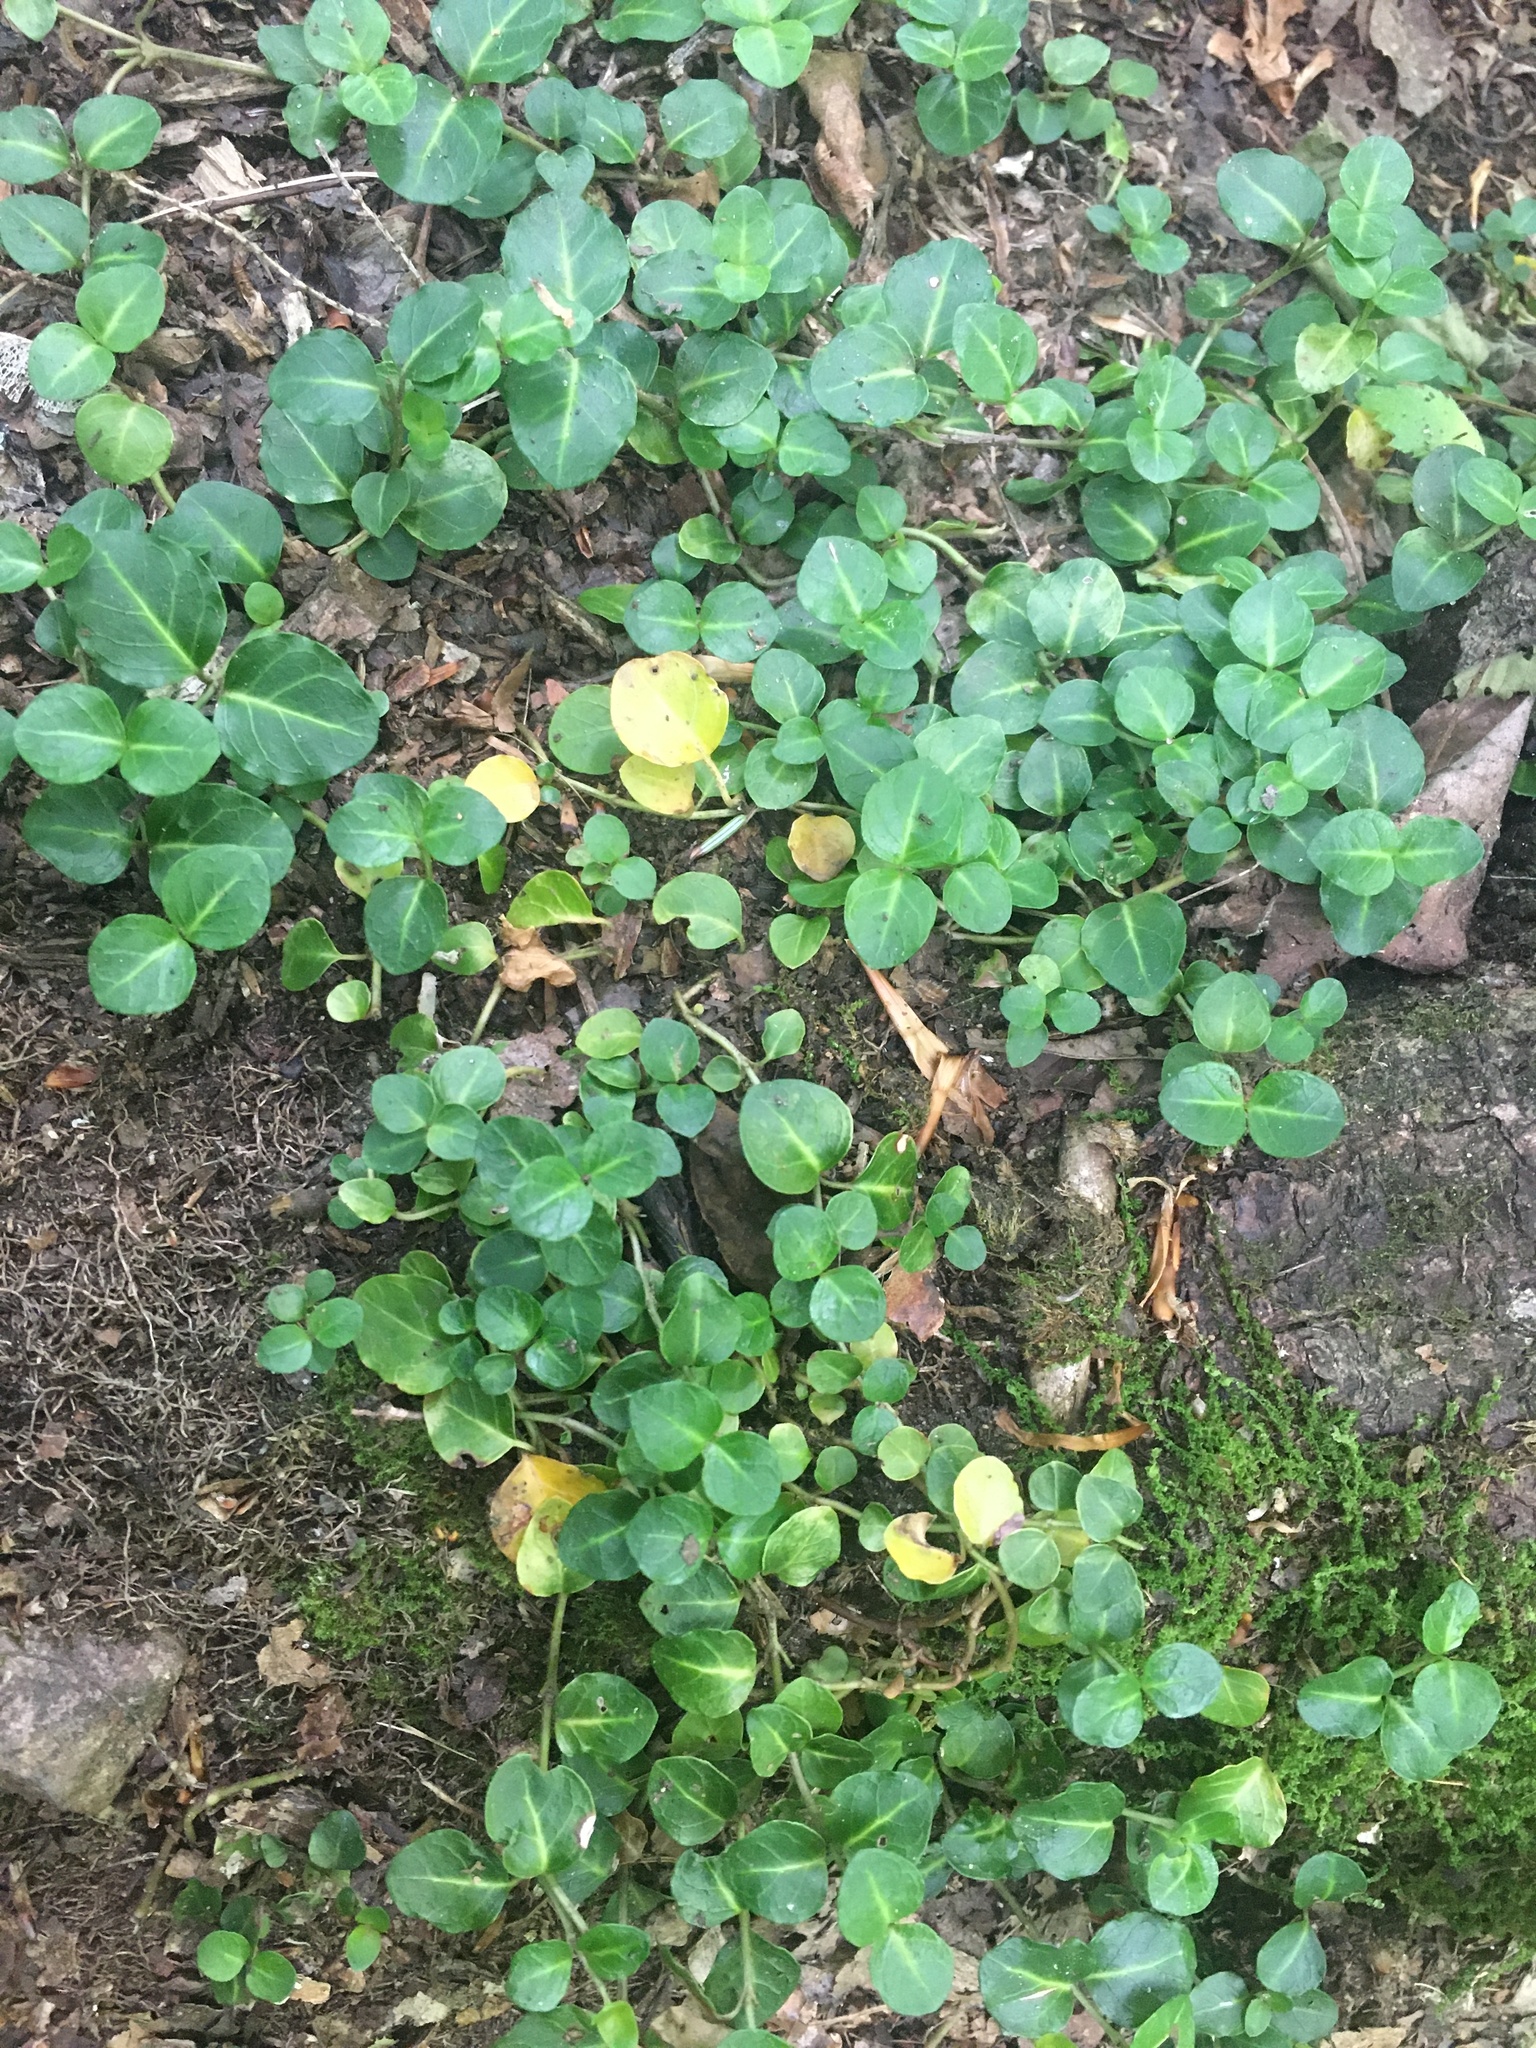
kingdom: Plantae
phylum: Tracheophyta
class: Magnoliopsida
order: Gentianales
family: Rubiaceae
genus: Mitchella
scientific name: Mitchella repens
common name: Partridge-berry
